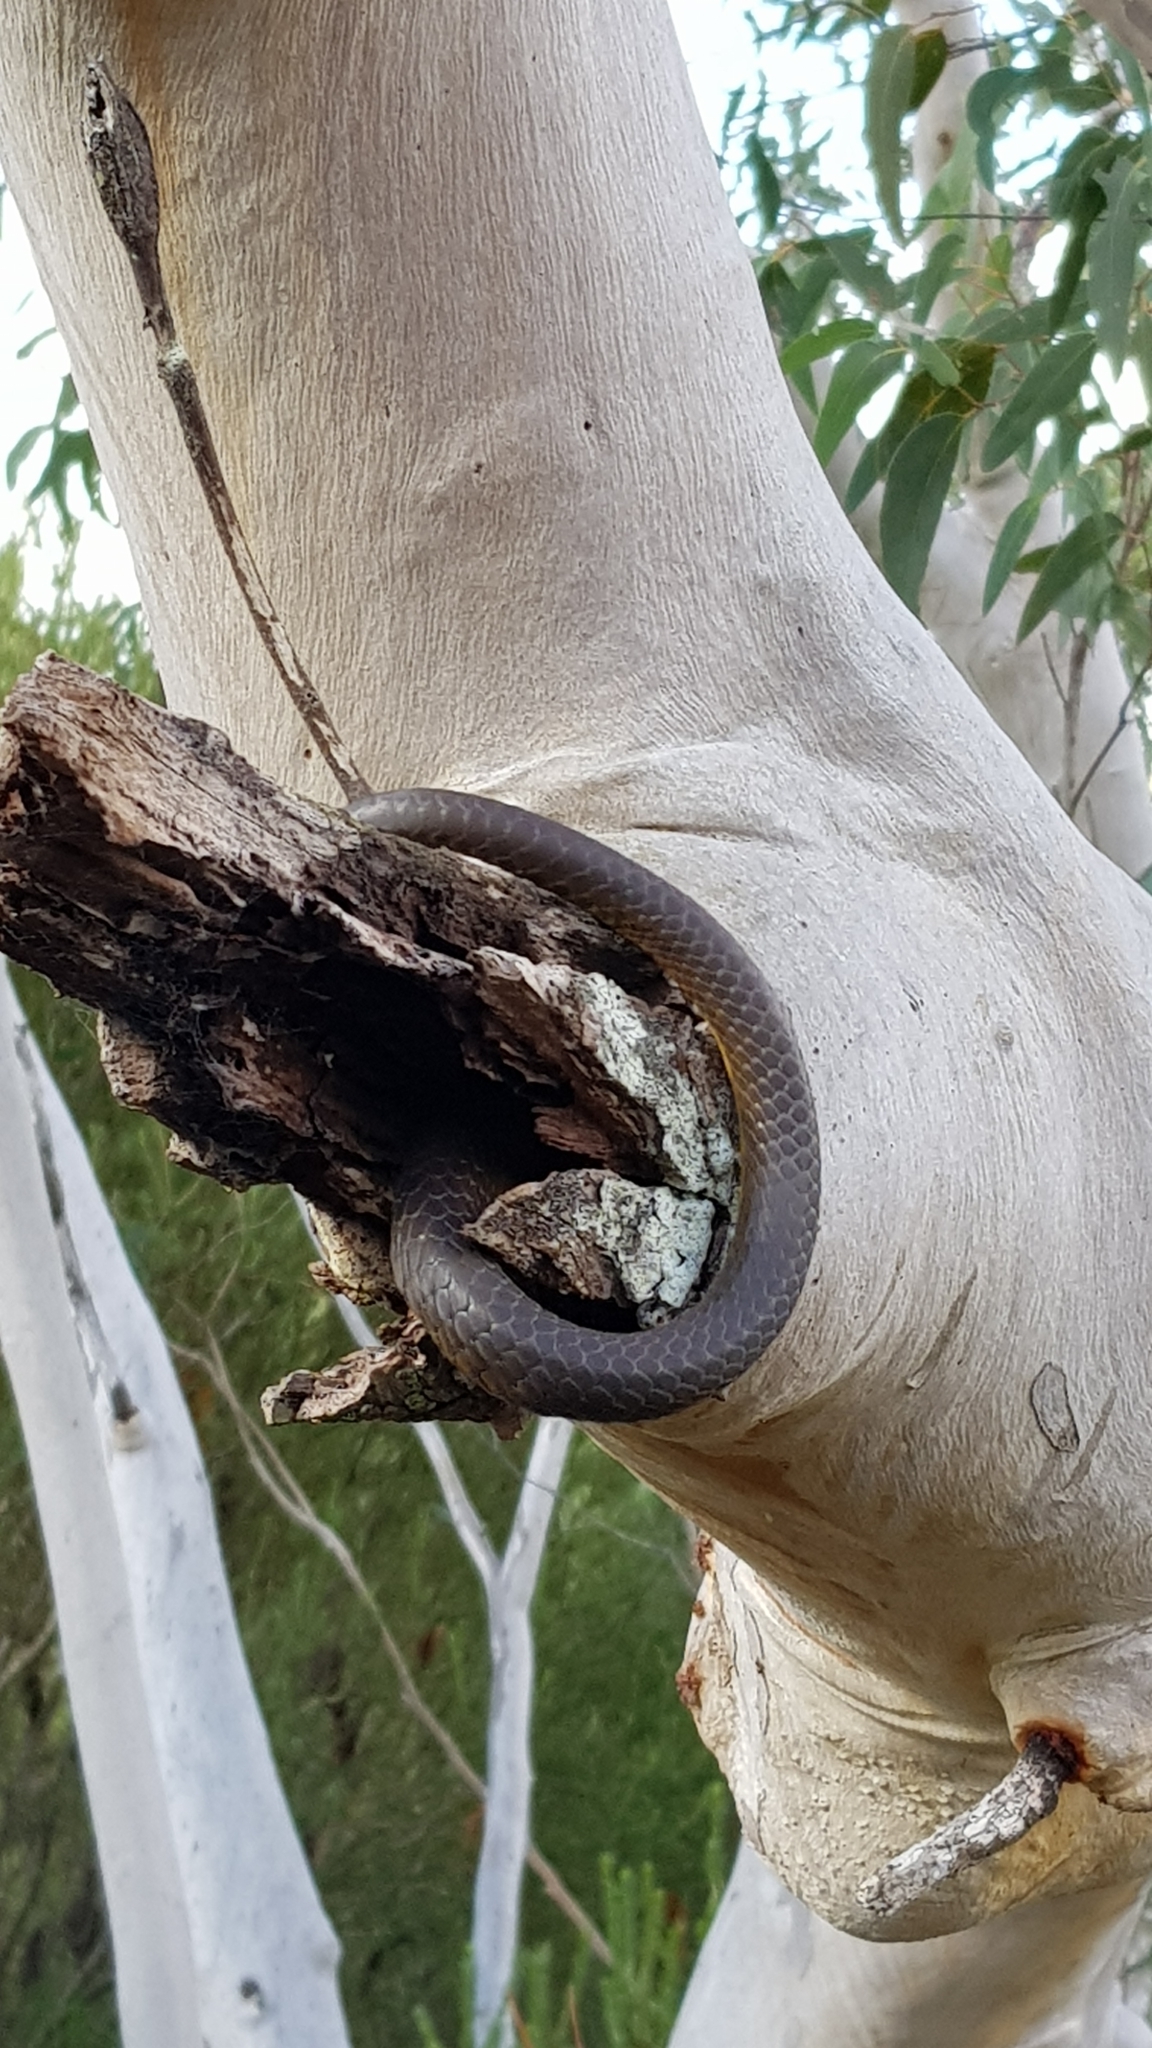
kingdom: Animalia
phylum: Chordata
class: Squamata
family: Colubridae
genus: Dendrelaphis
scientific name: Dendrelaphis punctulatus
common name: Common tree snake
